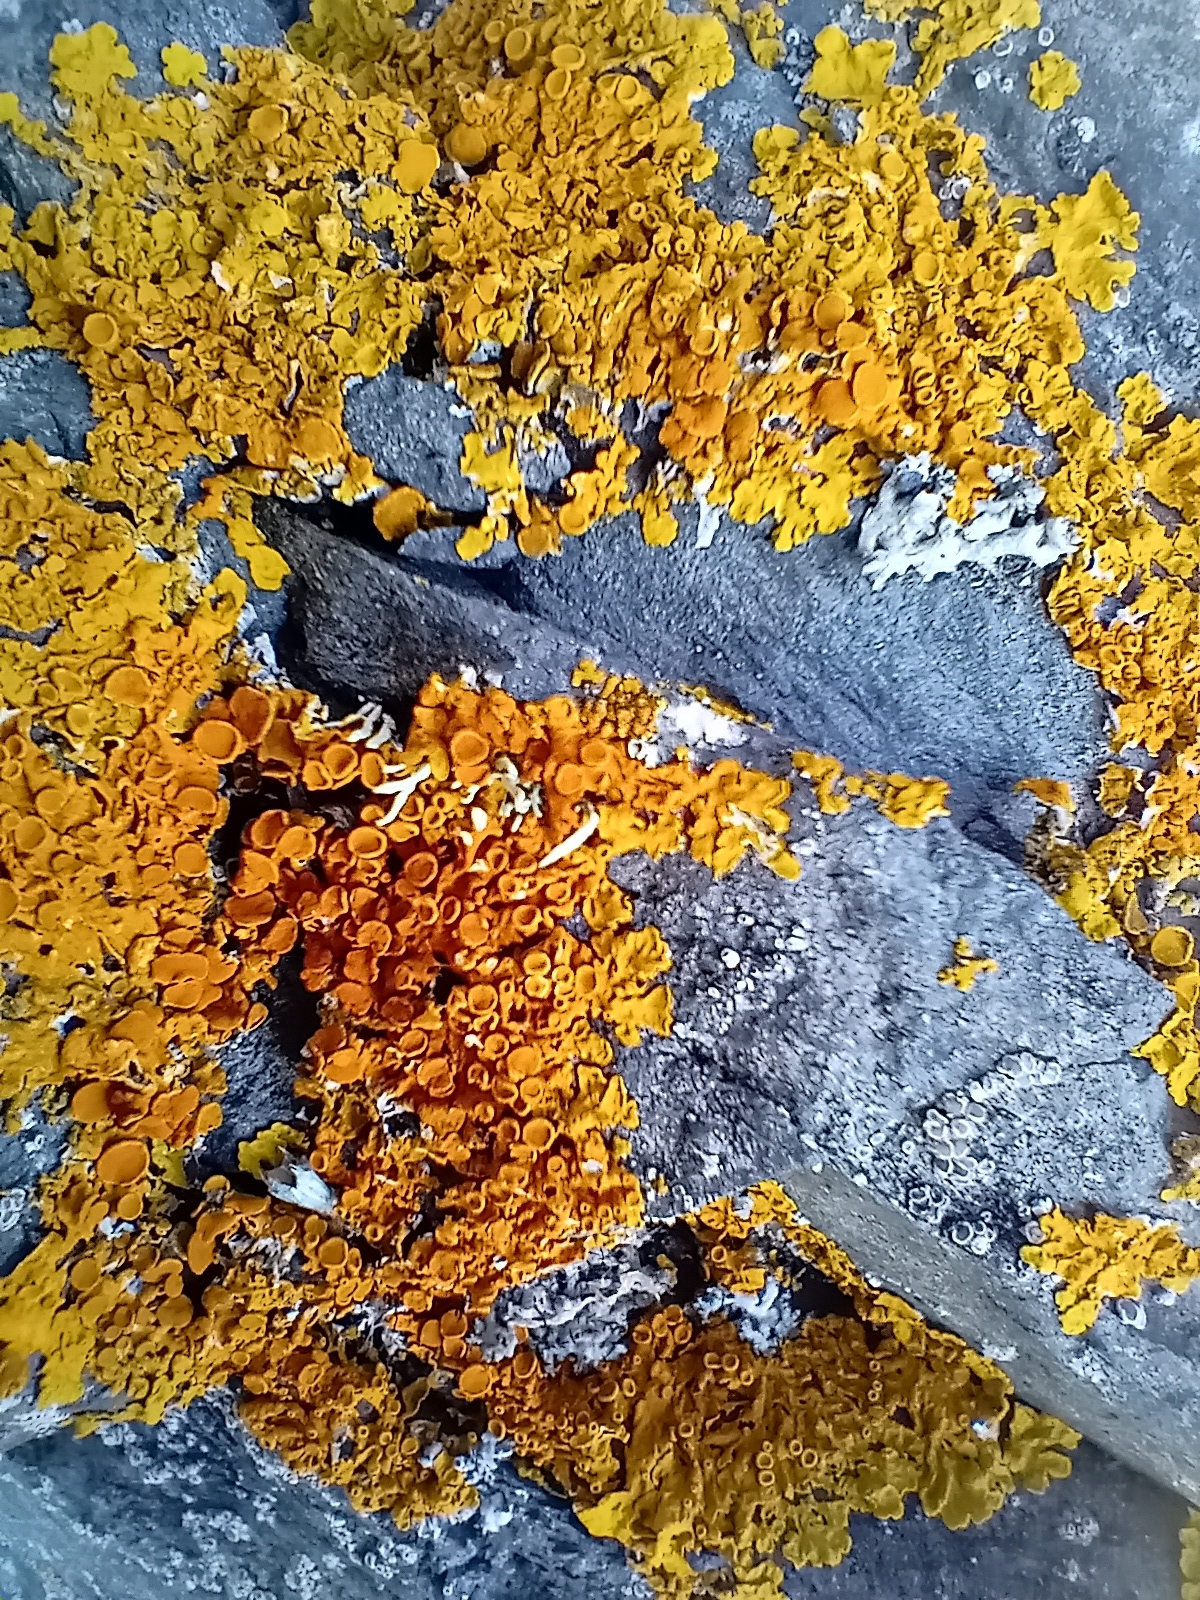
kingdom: Fungi
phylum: Ascomycota
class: Lecanoromycetes
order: Teloschistales
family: Teloschistaceae
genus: Xanthoria
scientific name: Xanthoria parietina
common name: Common orange lichen
